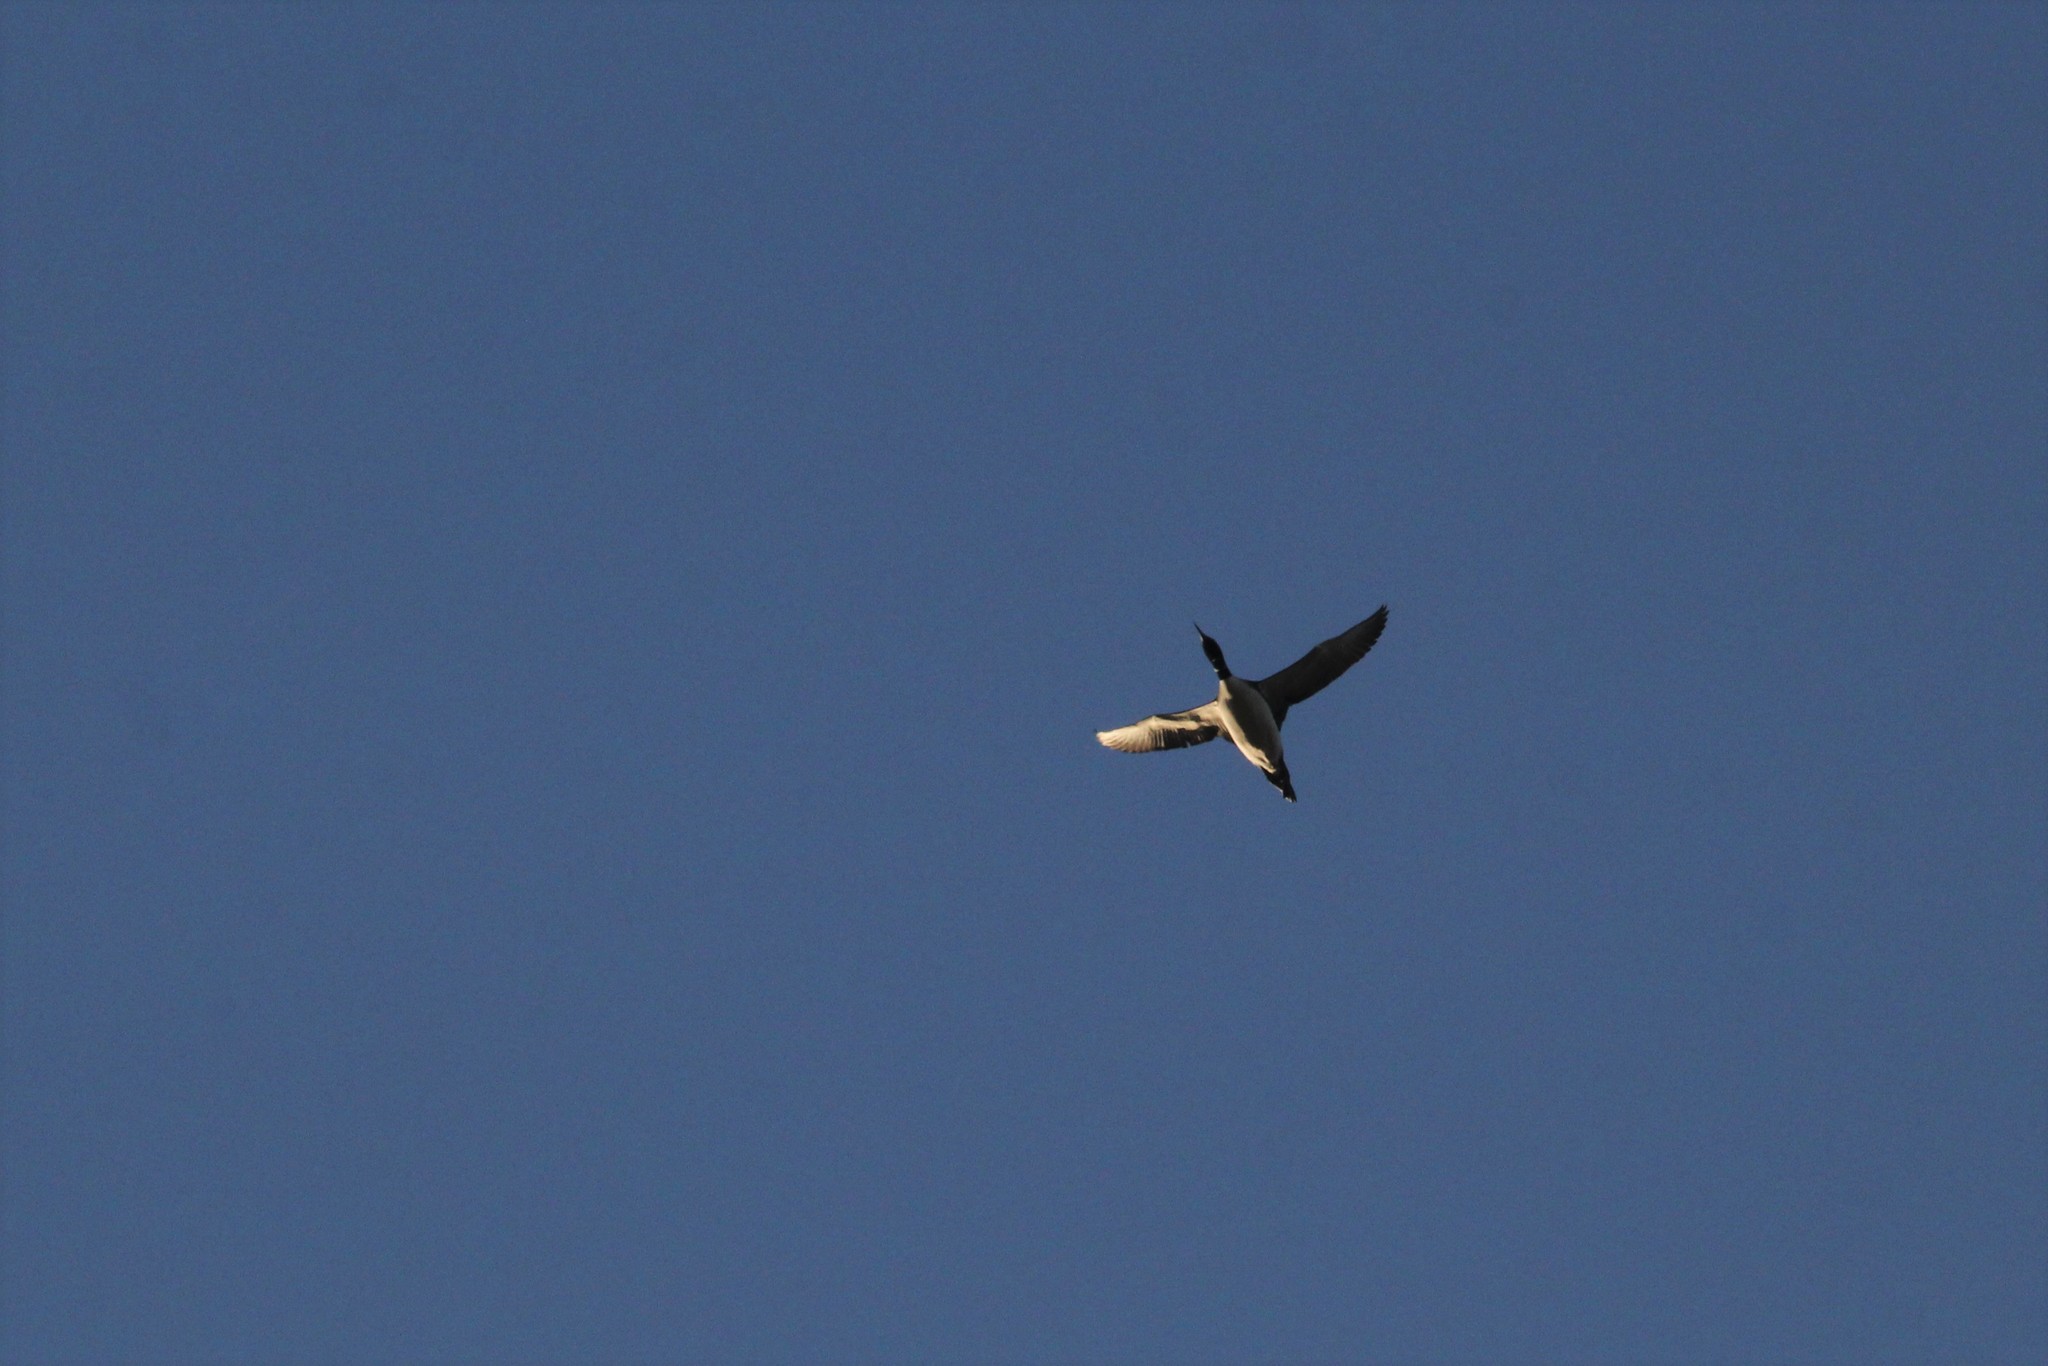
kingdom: Animalia
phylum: Chordata
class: Aves
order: Gaviiformes
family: Gaviidae
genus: Gavia
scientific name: Gavia immer
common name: Common loon
